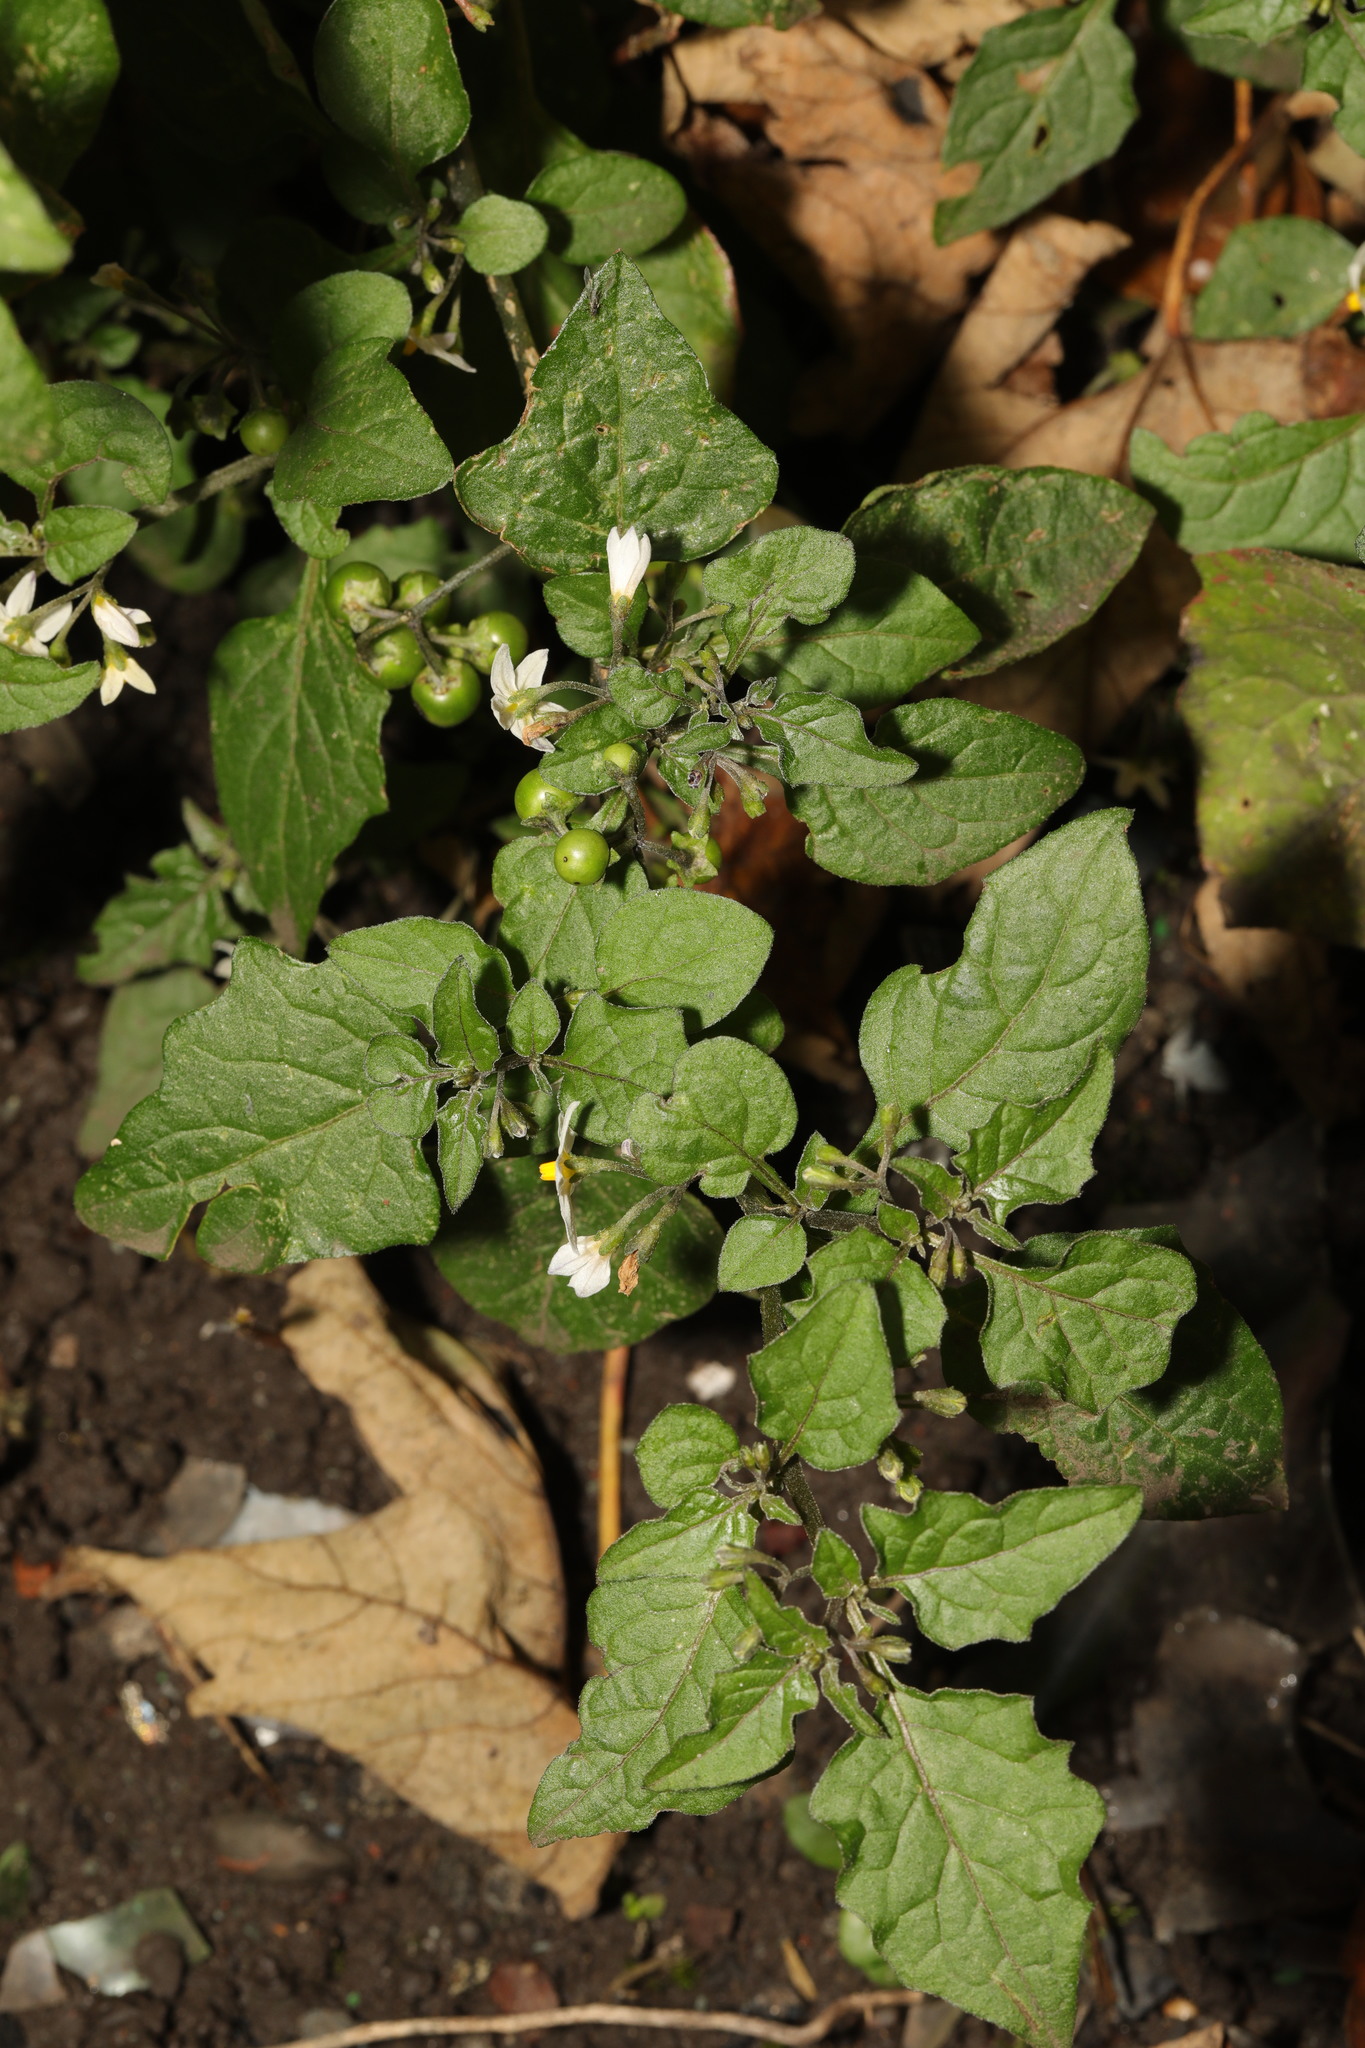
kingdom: Plantae
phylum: Tracheophyta
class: Magnoliopsida
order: Solanales
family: Solanaceae
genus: Solanum
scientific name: Solanum nigrum
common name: Black nightshade
